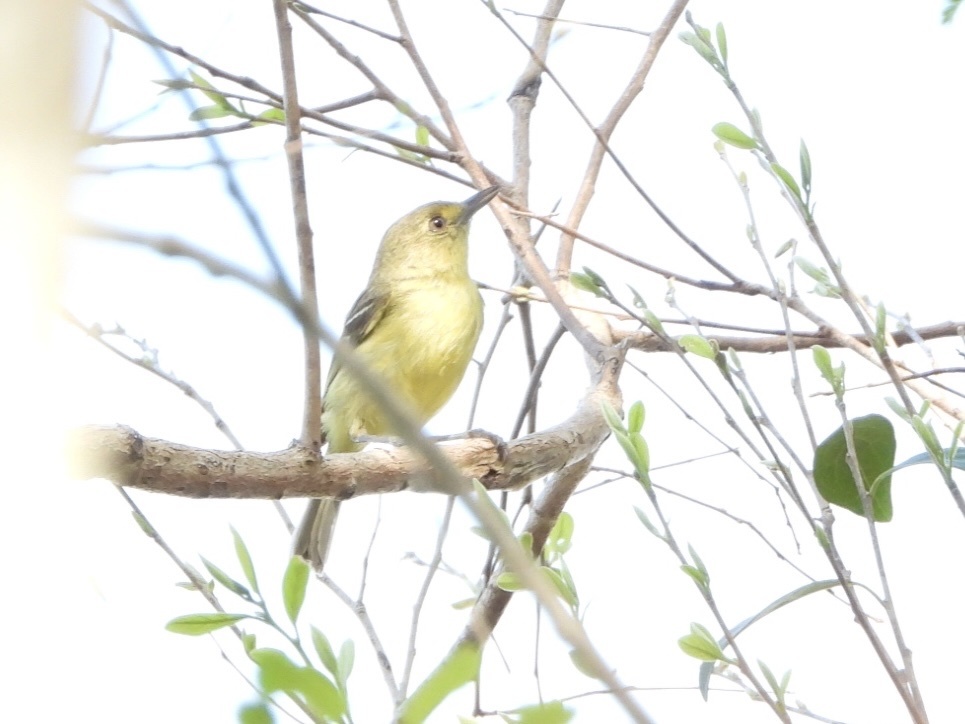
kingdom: Animalia
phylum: Chordata
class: Aves
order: Passeriformes
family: Vireonidae
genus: Vireo
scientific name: Vireo pallens
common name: Mangrove vireo
